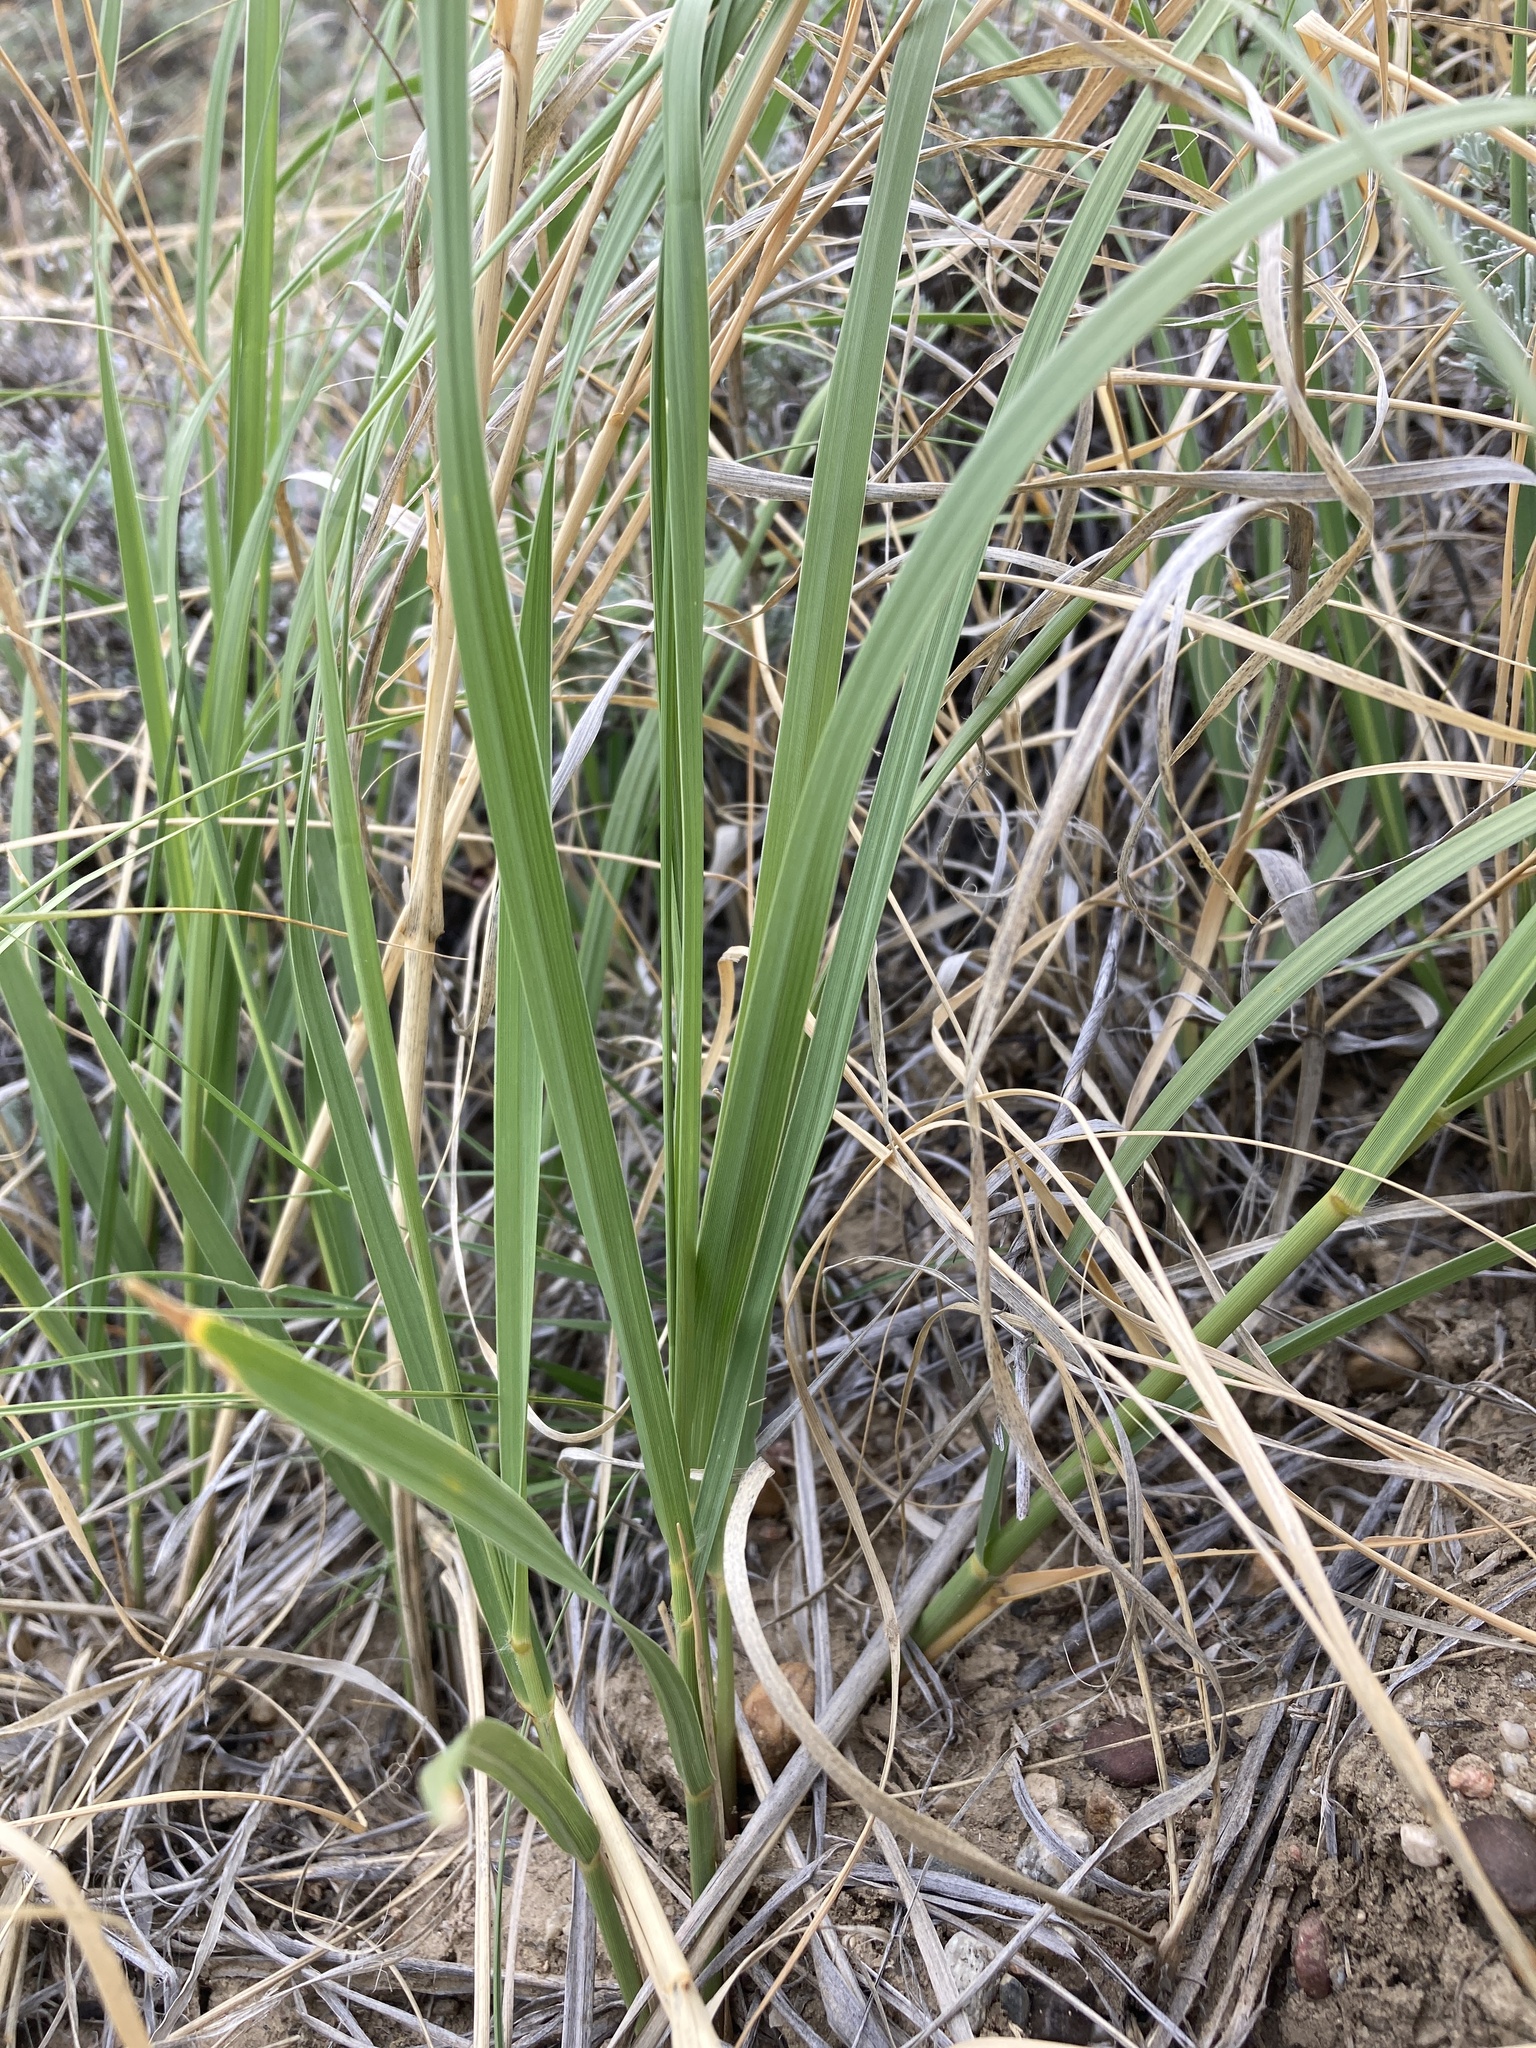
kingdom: Plantae
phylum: Tracheophyta
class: Liliopsida
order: Poales
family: Poaceae
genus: Sporobolus
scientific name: Sporobolus rigidus
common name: Prairie sandreed
